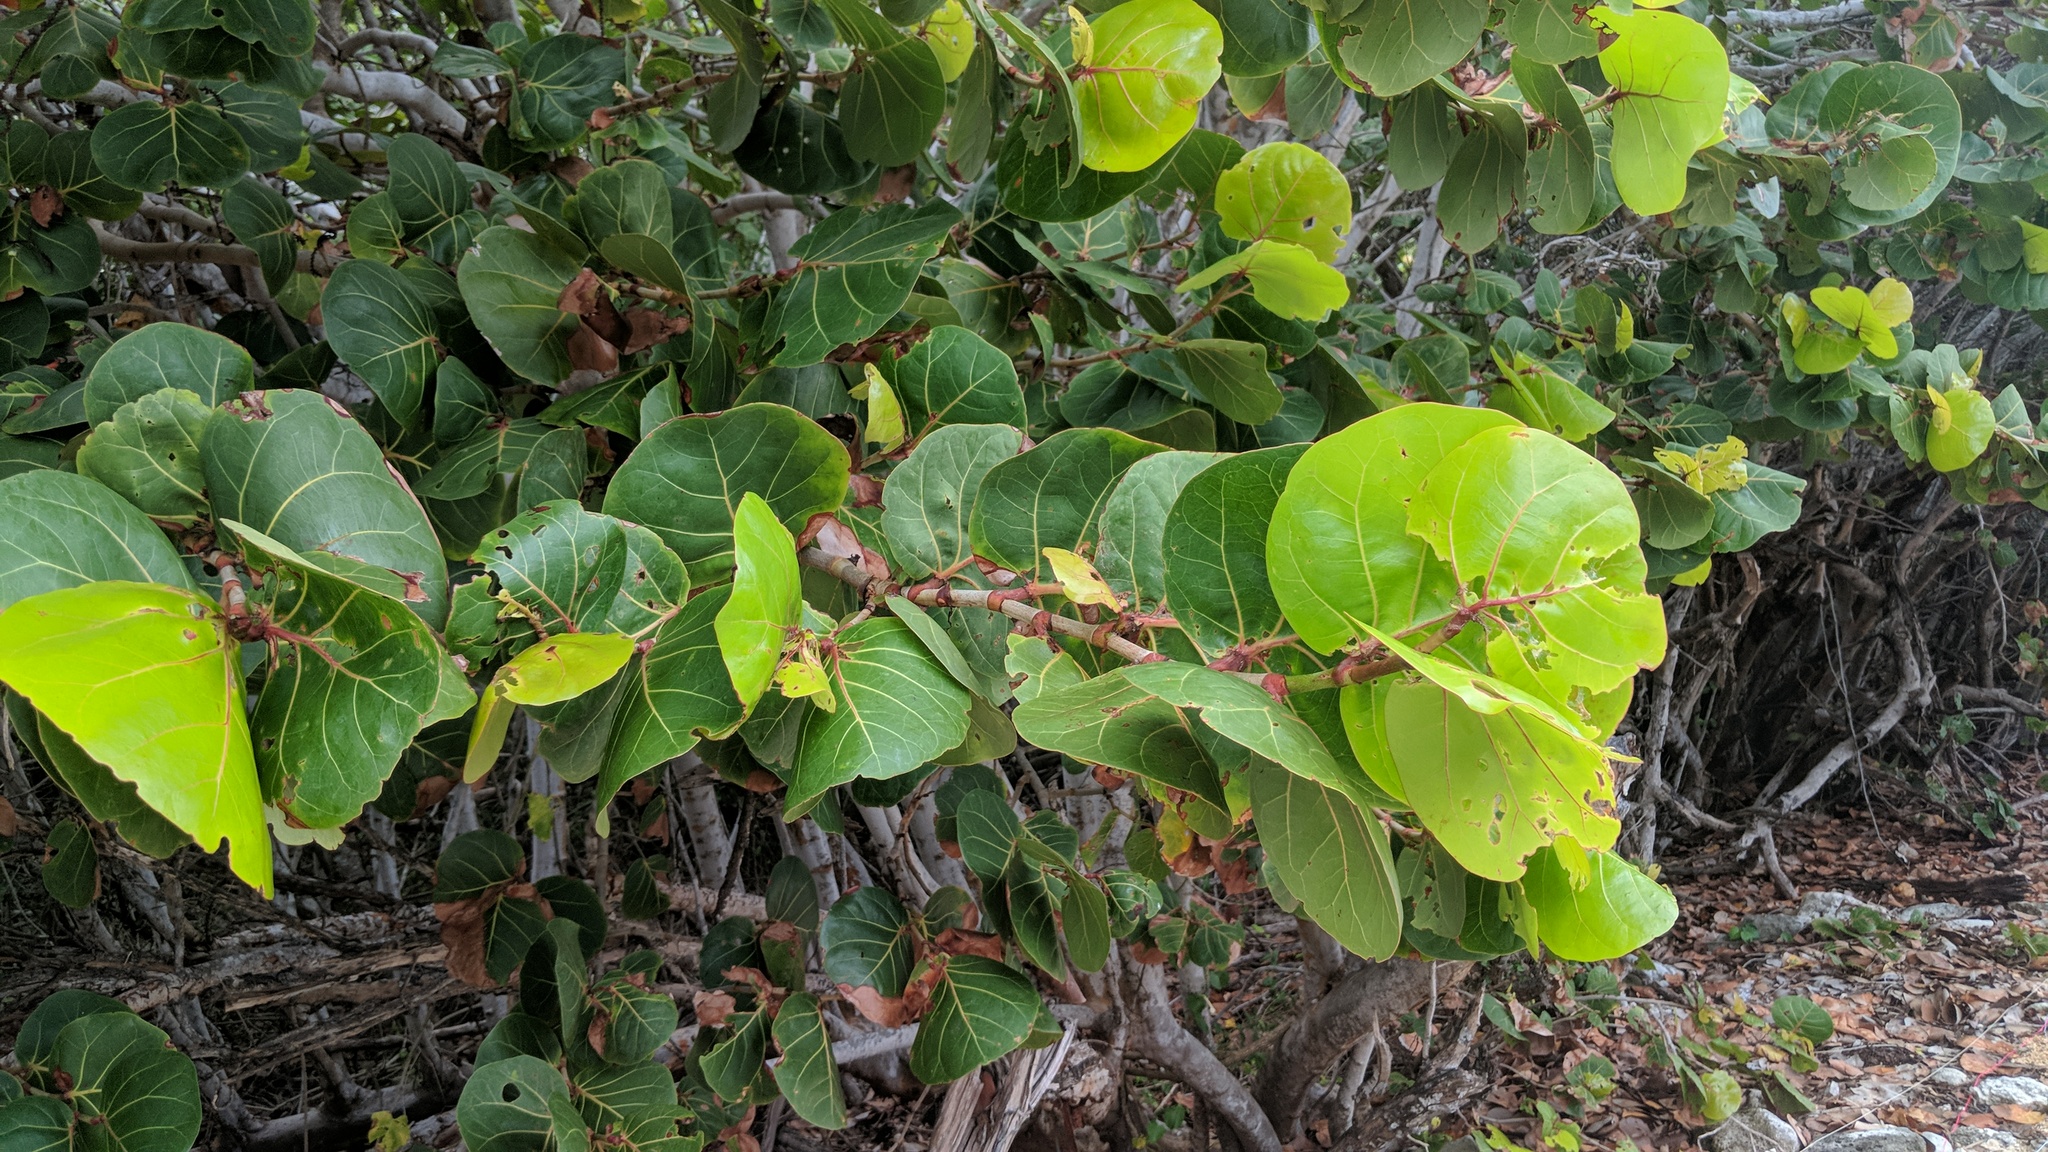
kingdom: Plantae
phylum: Tracheophyta
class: Magnoliopsida
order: Caryophyllales
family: Polygonaceae
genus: Coccoloba
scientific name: Coccoloba uvifera
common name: Seagrape
